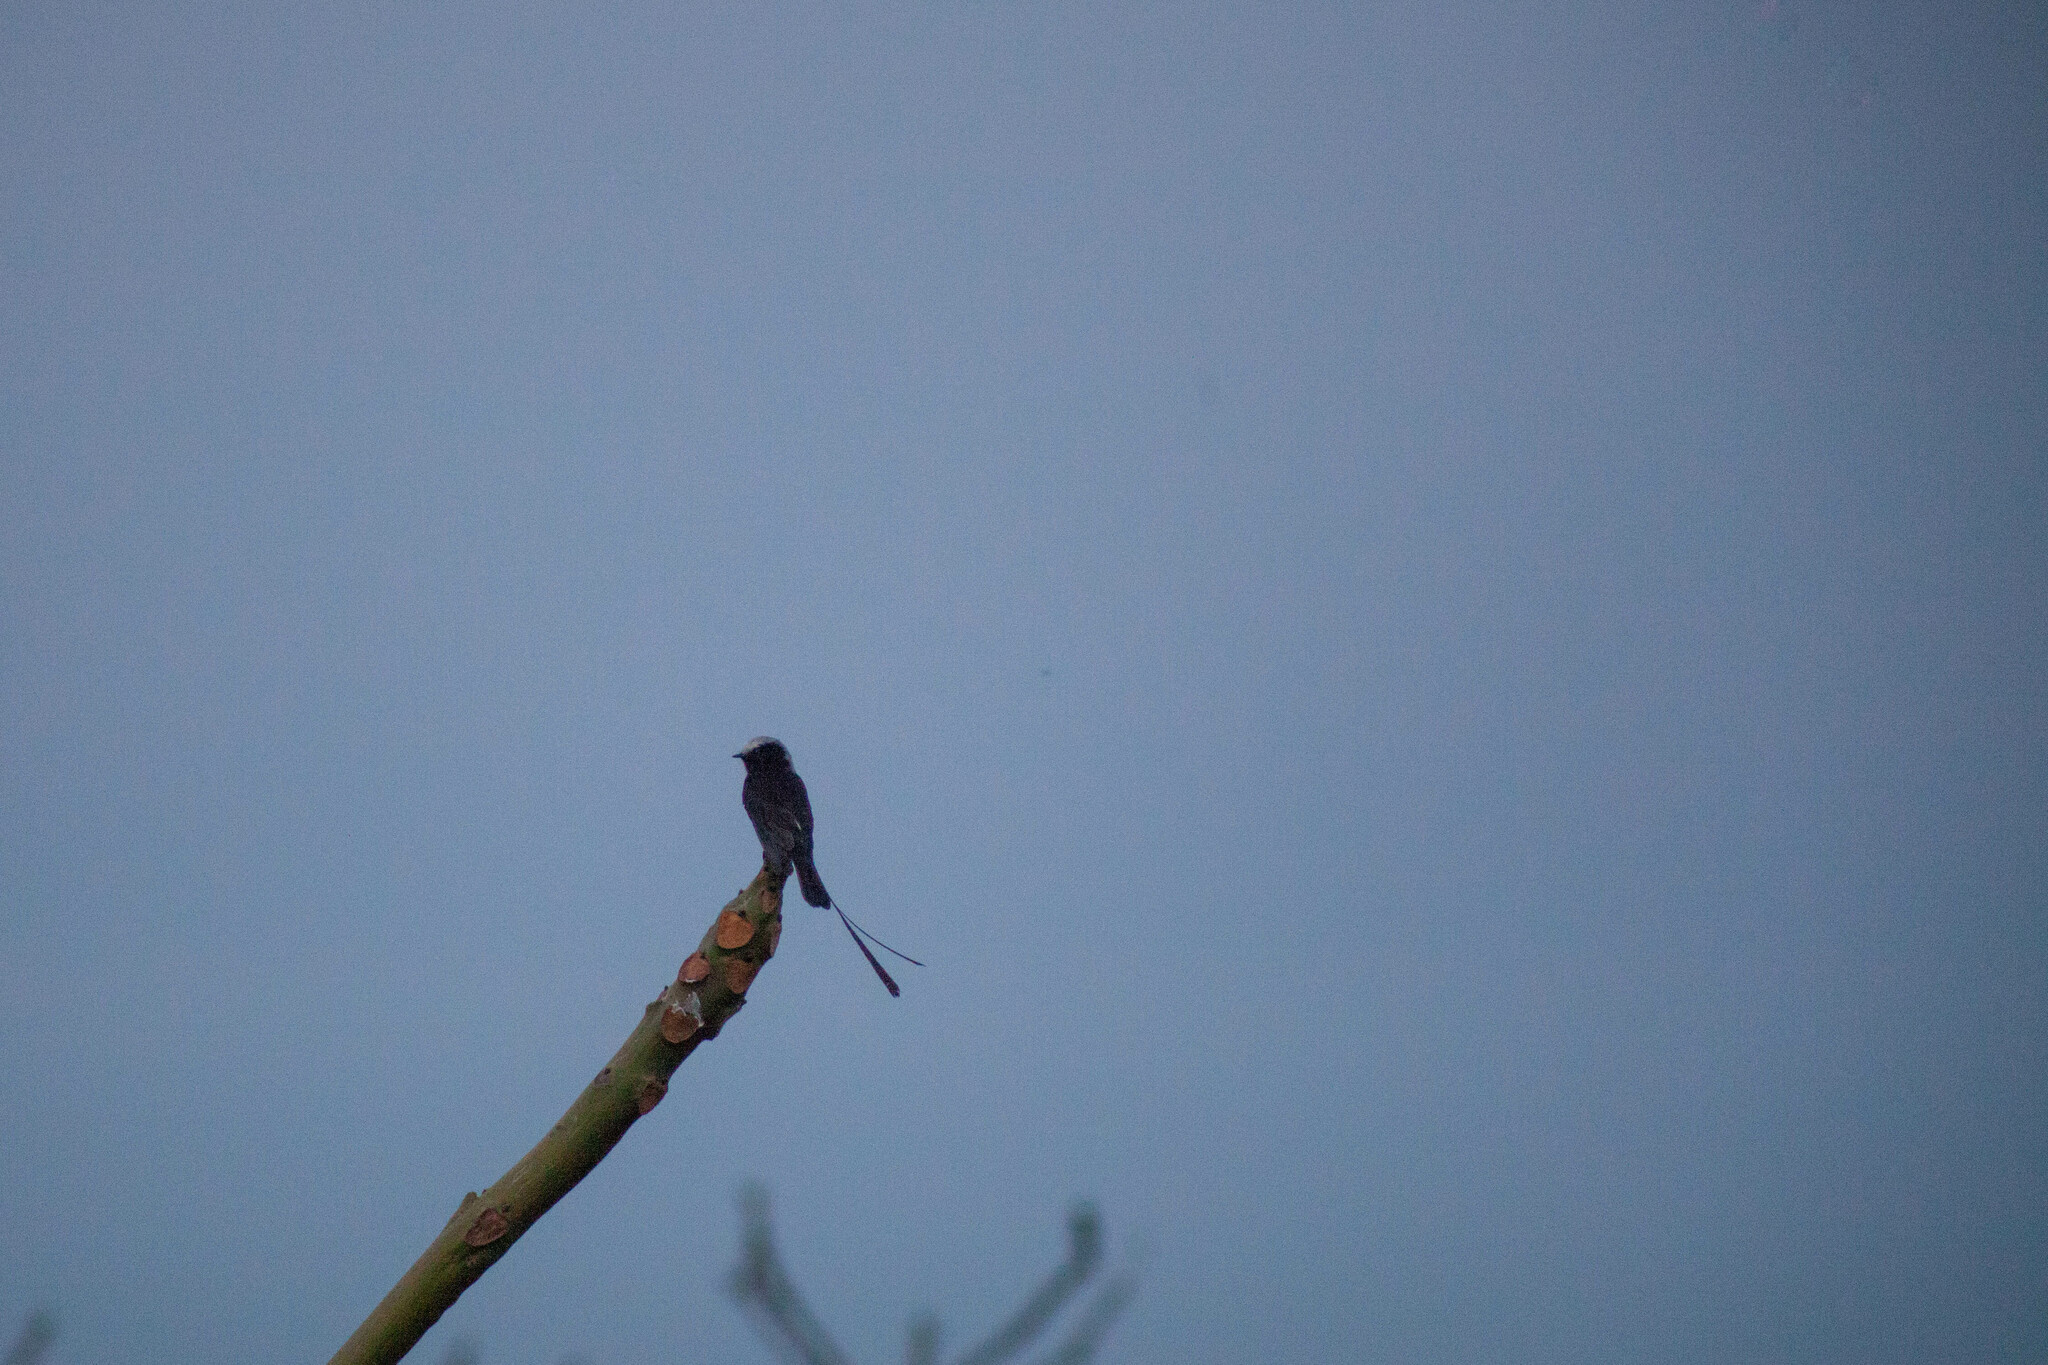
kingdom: Animalia
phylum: Chordata
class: Aves
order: Passeriformes
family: Tyrannidae
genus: Colonia
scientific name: Colonia colonus
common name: Long-tailed tyrant
